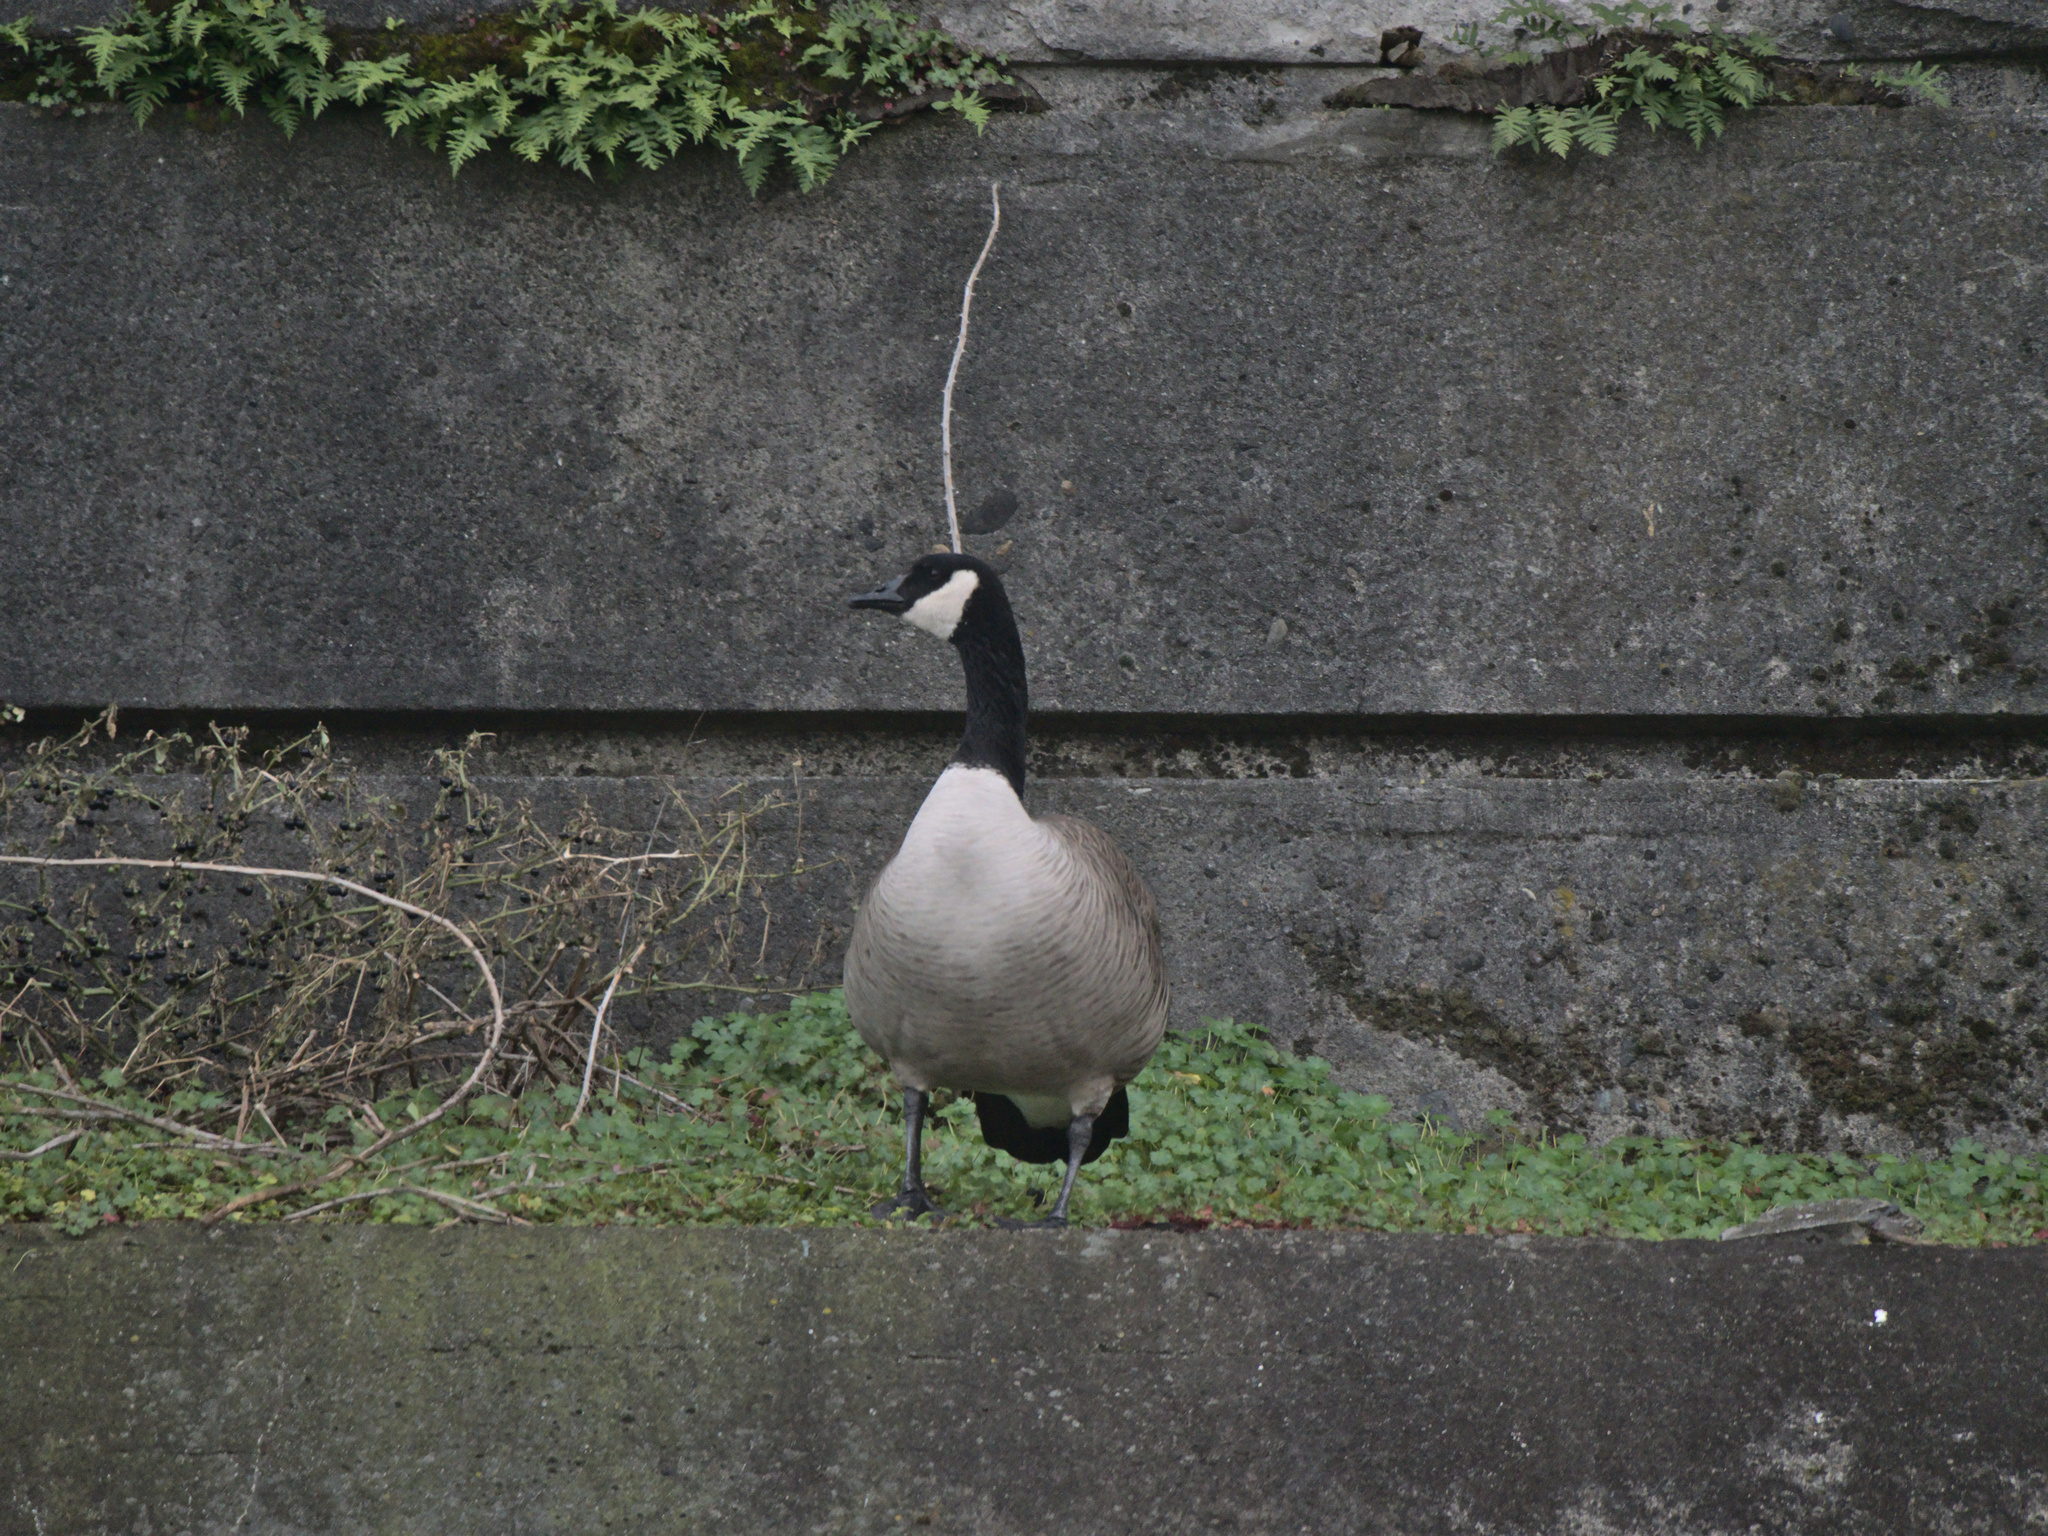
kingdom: Animalia
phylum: Chordata
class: Aves
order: Anseriformes
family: Anatidae
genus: Branta
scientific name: Branta canadensis
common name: Canada goose
